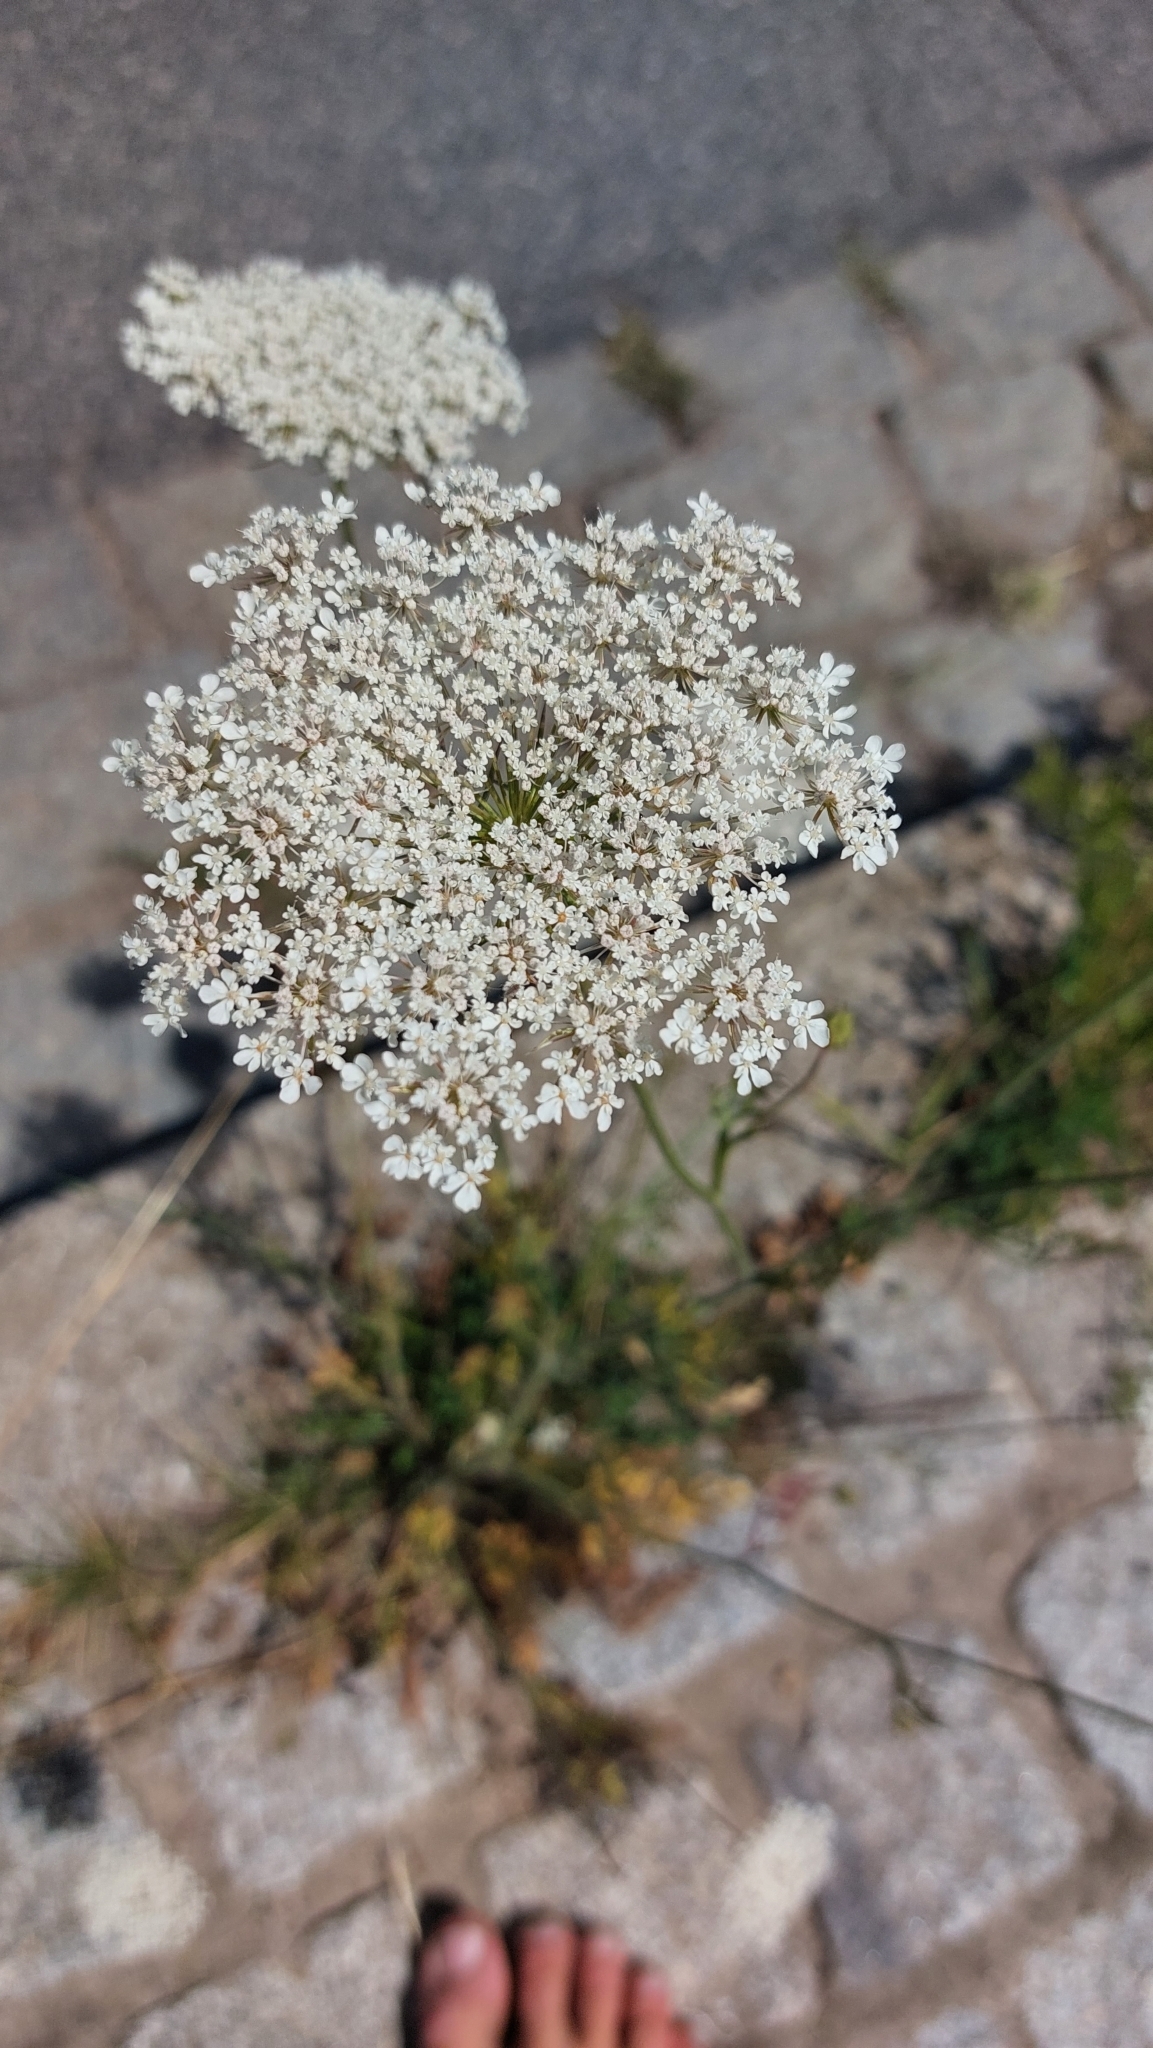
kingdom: Plantae
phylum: Tracheophyta
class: Magnoliopsida
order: Apiales
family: Apiaceae
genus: Daucus
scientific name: Daucus carota
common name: Wild carrot
